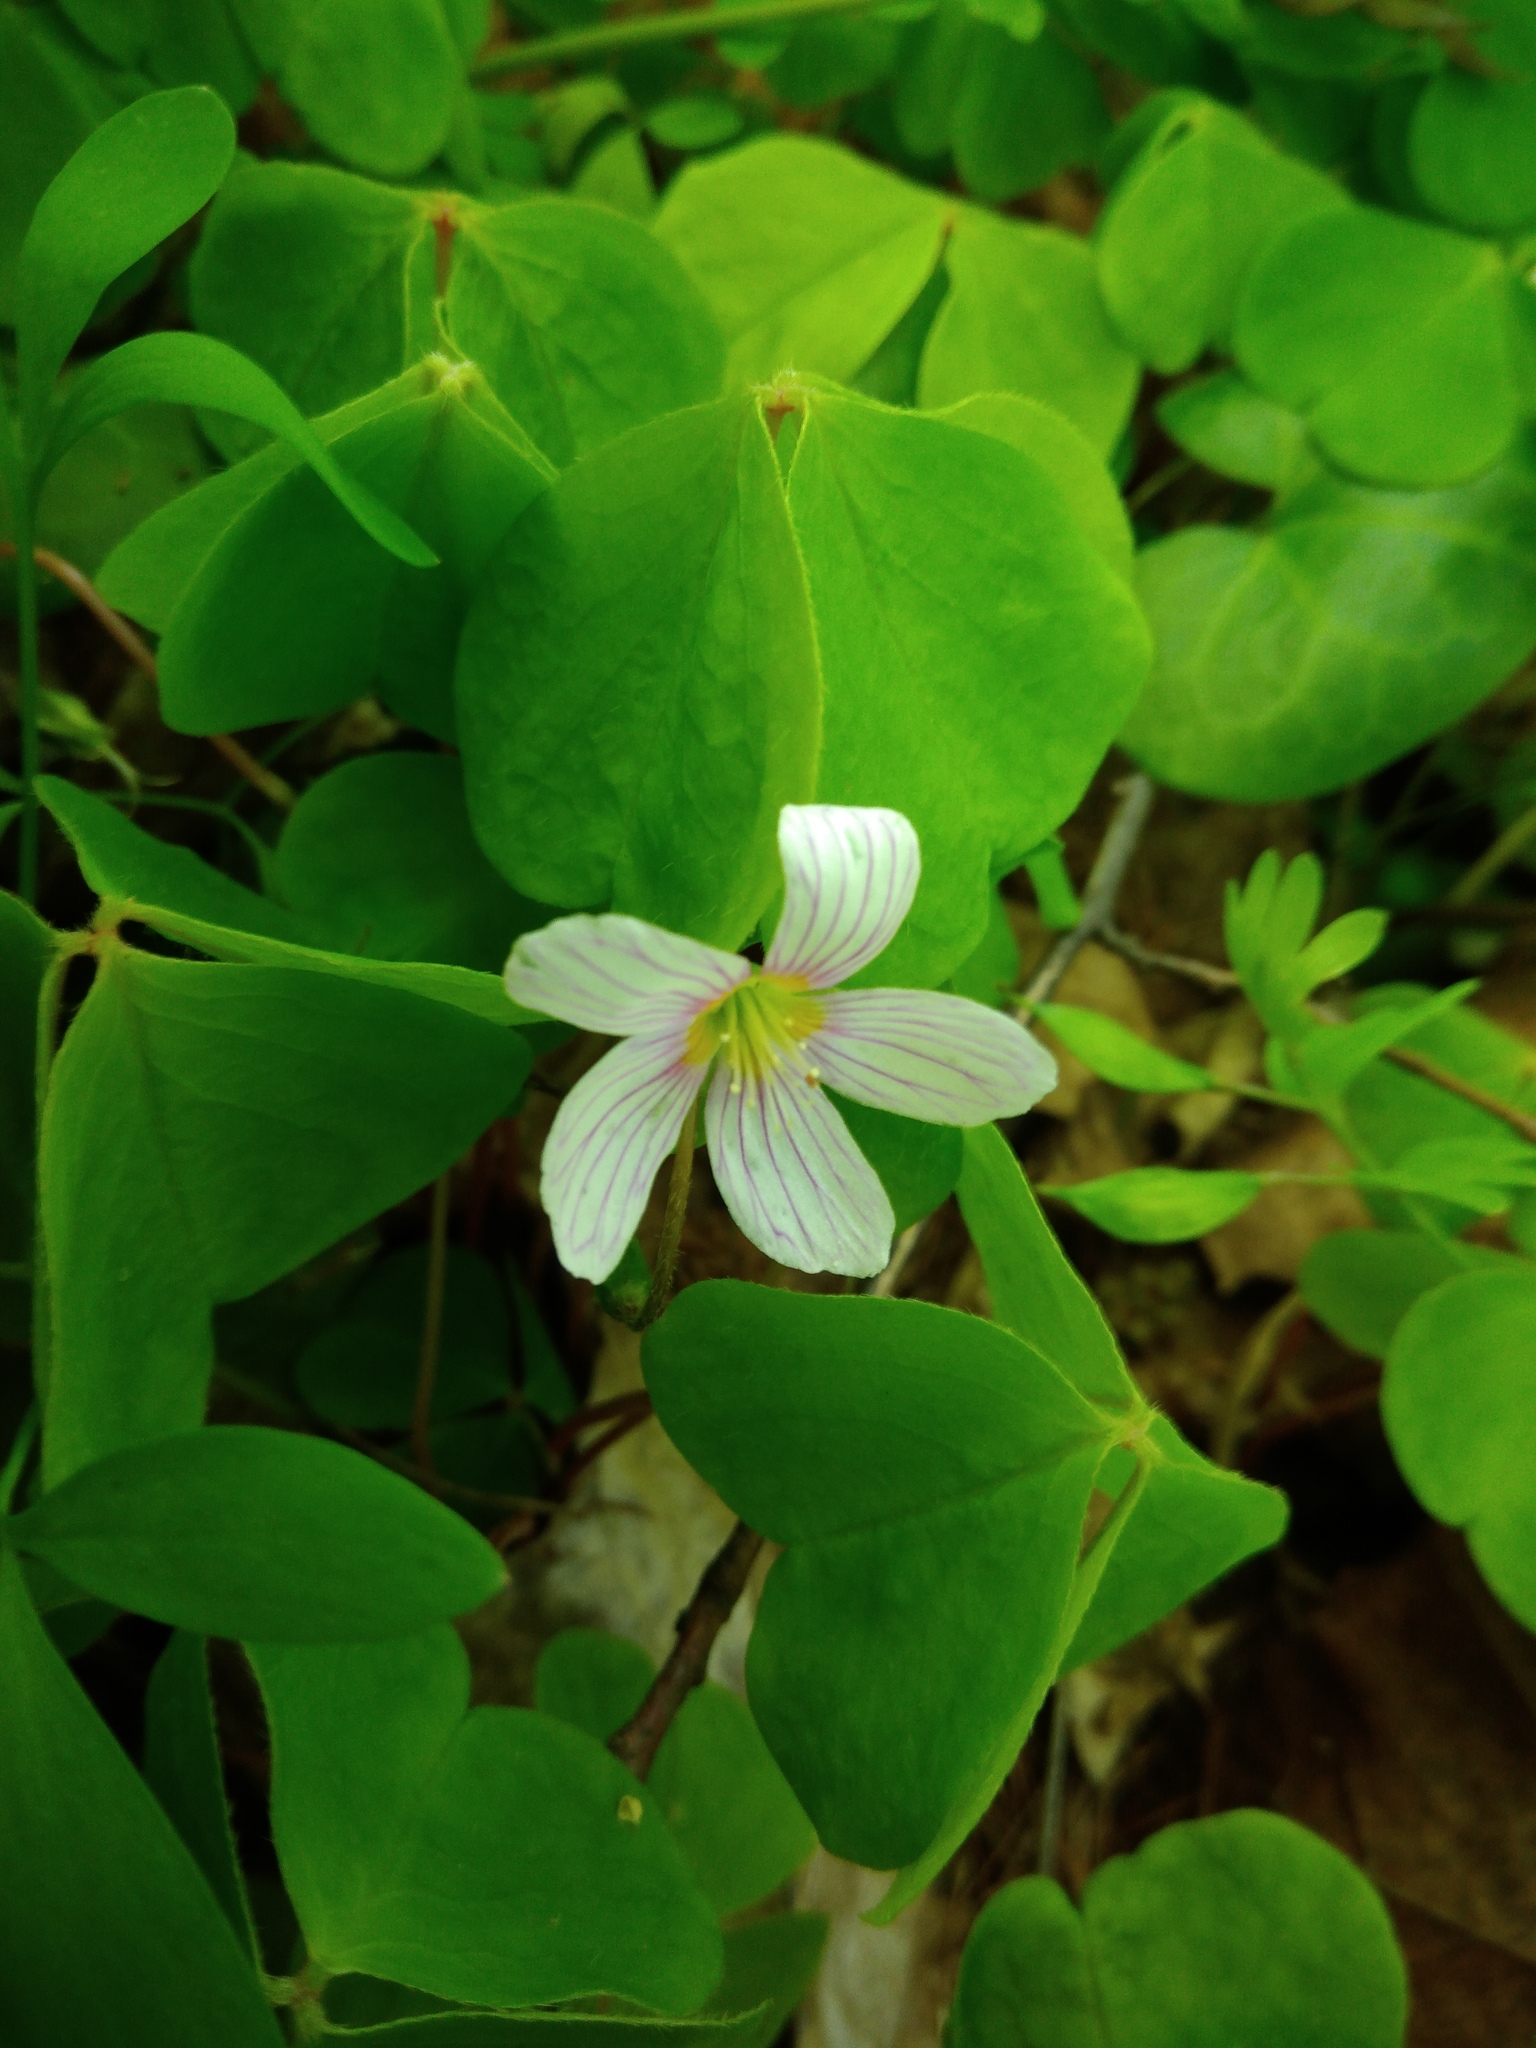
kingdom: Plantae
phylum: Tracheophyta
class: Magnoliopsida
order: Oxalidales
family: Oxalidaceae
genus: Oxalis
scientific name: Oxalis acetosella
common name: Wood-sorrel
